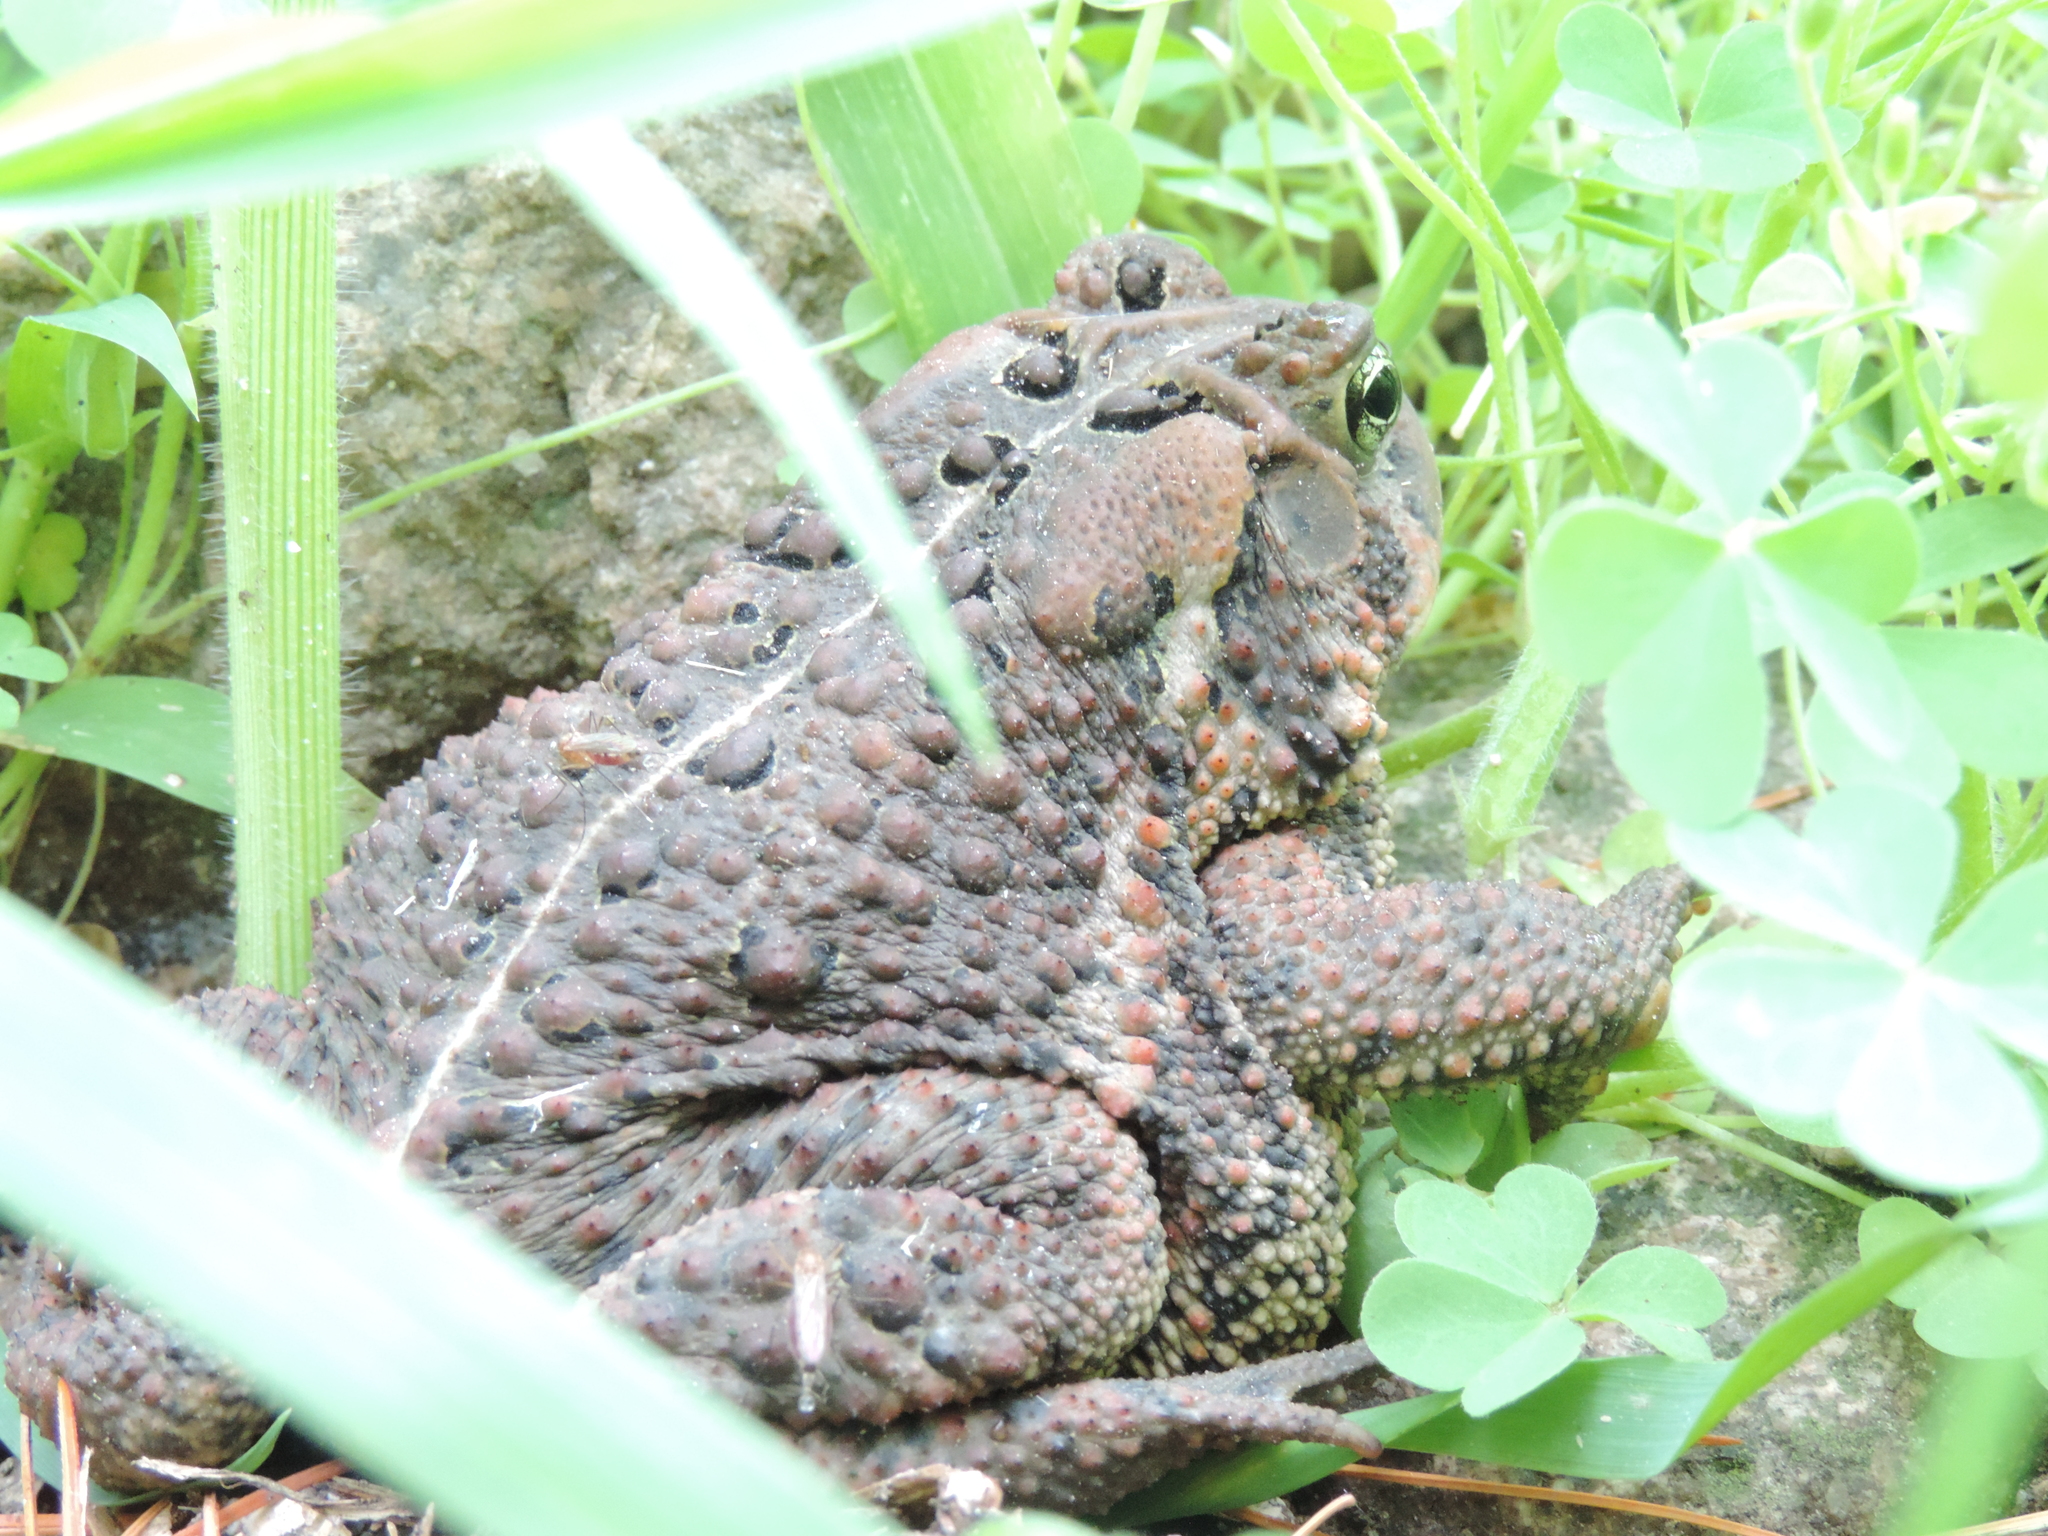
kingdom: Animalia
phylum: Chordata
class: Amphibia
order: Anura
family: Bufonidae
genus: Anaxyrus
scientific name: Anaxyrus americanus
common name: American toad
